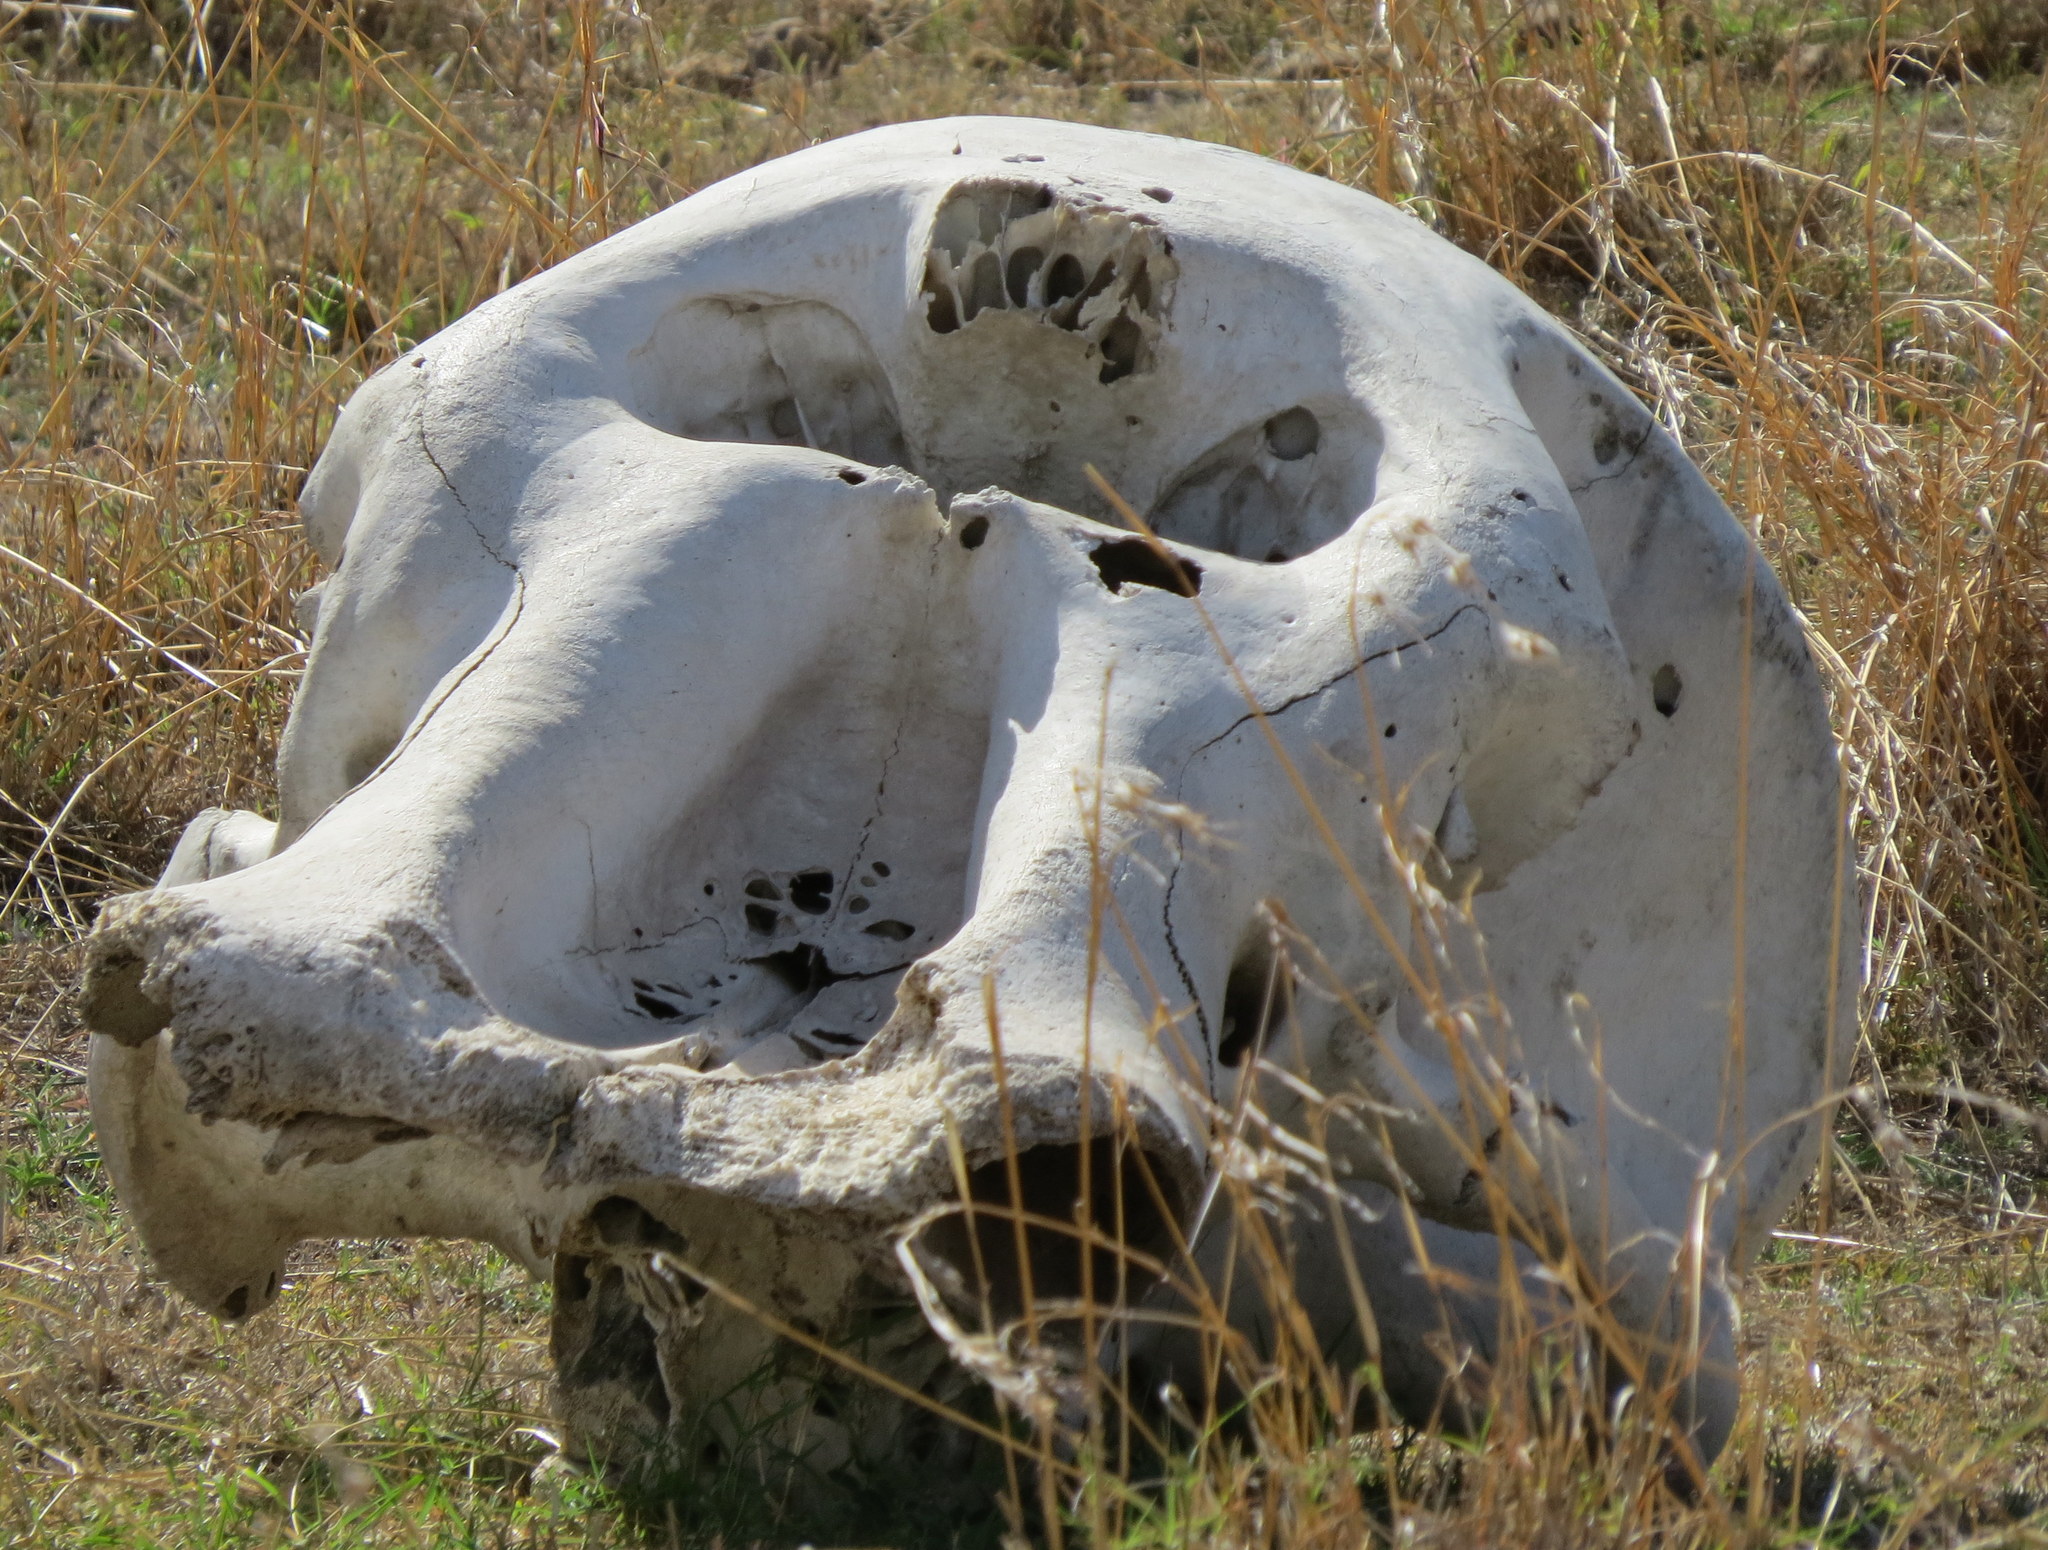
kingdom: Animalia
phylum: Chordata
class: Mammalia
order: Proboscidea
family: Elephantidae
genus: Loxodonta
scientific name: Loxodonta africana
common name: African elephant
